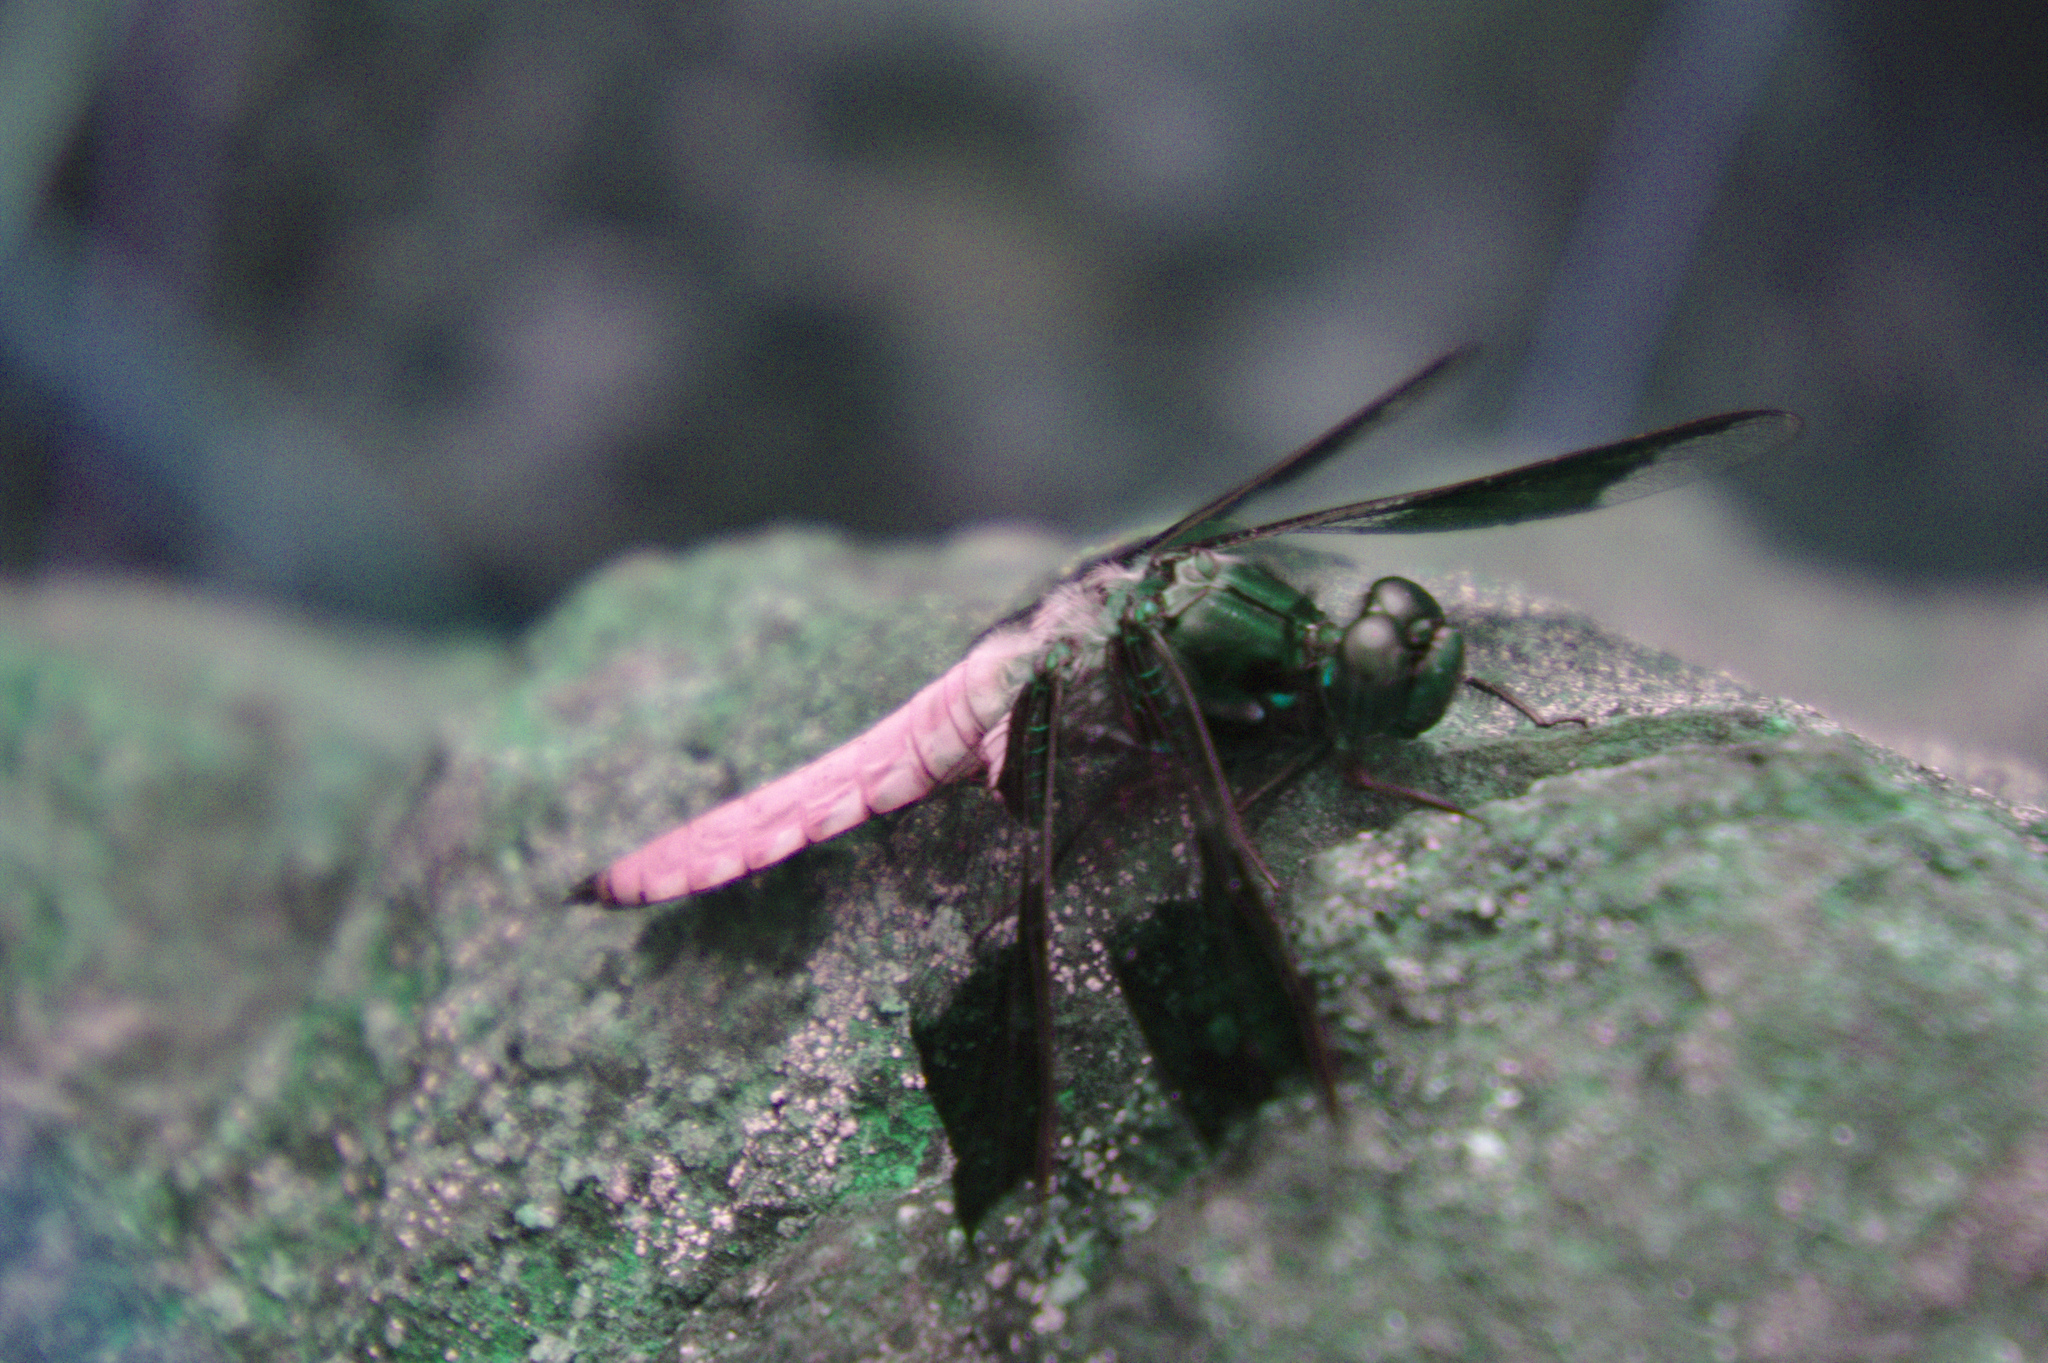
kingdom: Animalia
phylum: Arthropoda
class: Insecta
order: Odonata
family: Libellulidae
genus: Plathemis
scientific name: Plathemis lydia
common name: Common whitetail
